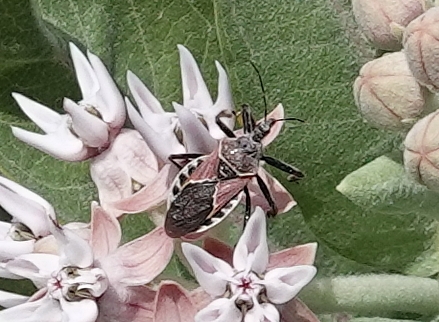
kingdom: Animalia
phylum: Arthropoda
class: Insecta
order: Hemiptera
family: Reduviidae
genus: Apiomerus
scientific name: Apiomerus spissipes
